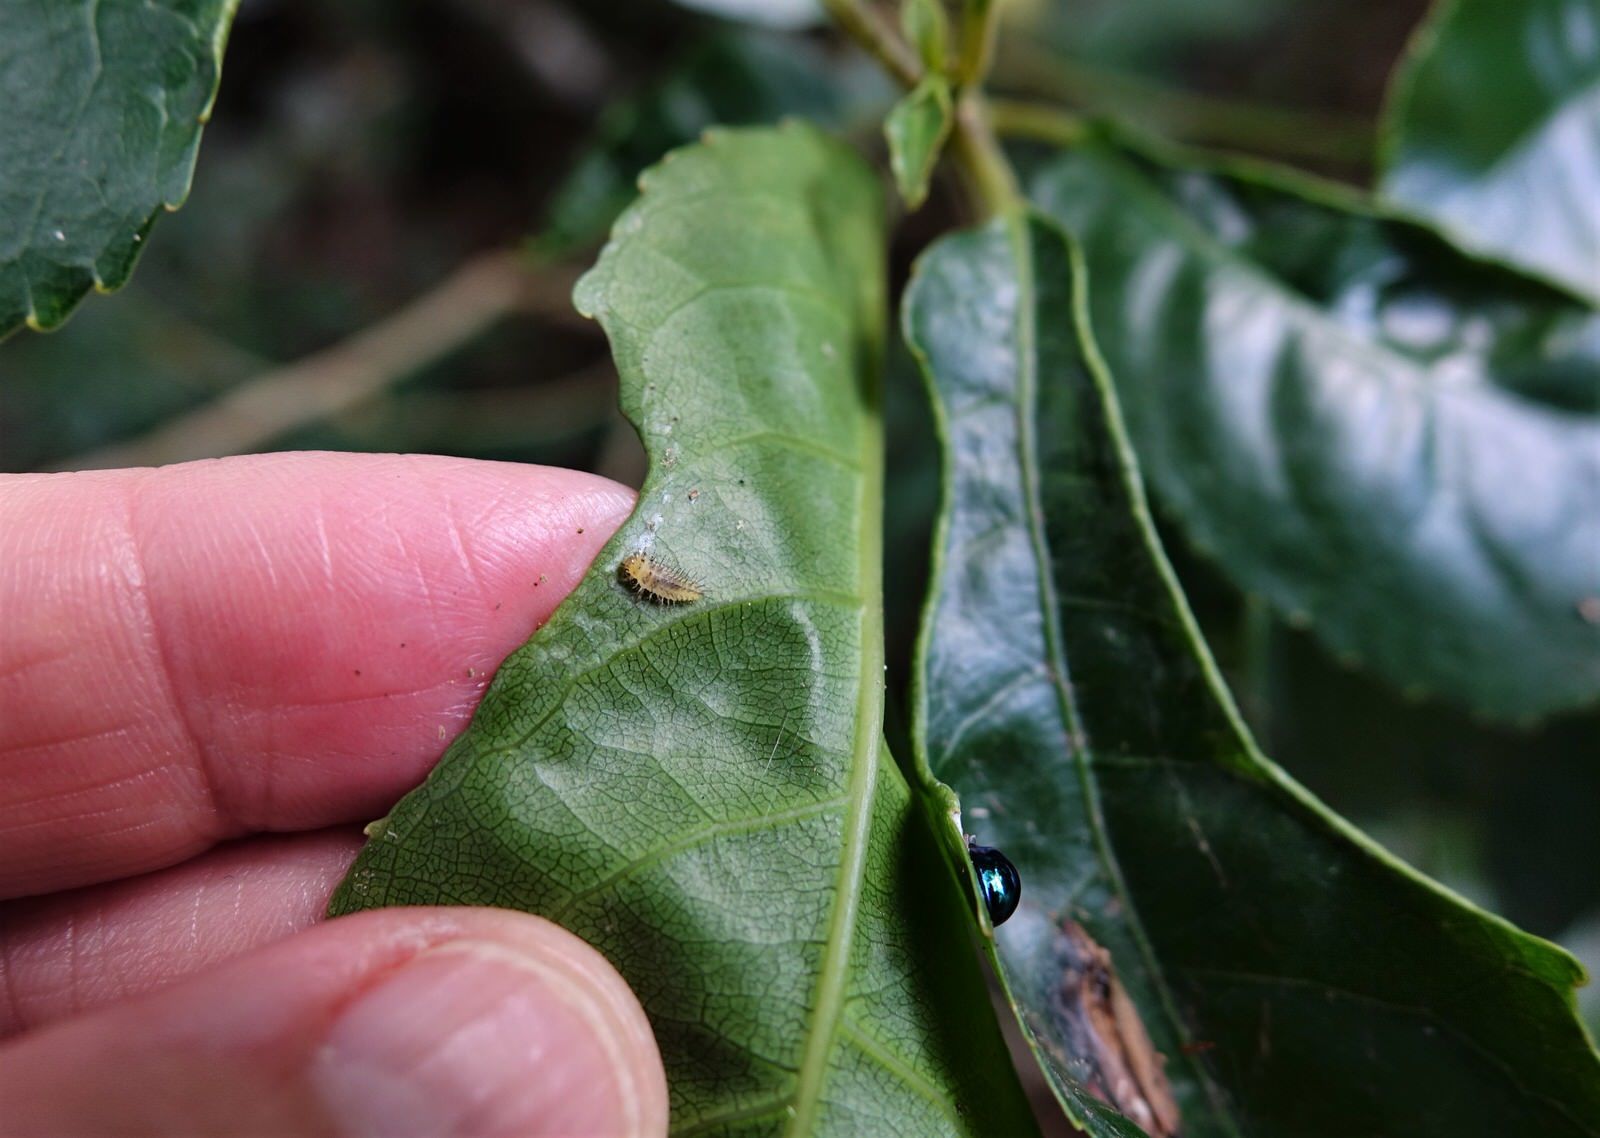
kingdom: Animalia
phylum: Arthropoda
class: Insecta
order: Coleoptera
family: Coccinellidae
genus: Halmus
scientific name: Halmus chalybeus
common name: Steel blue ladybird beetle
